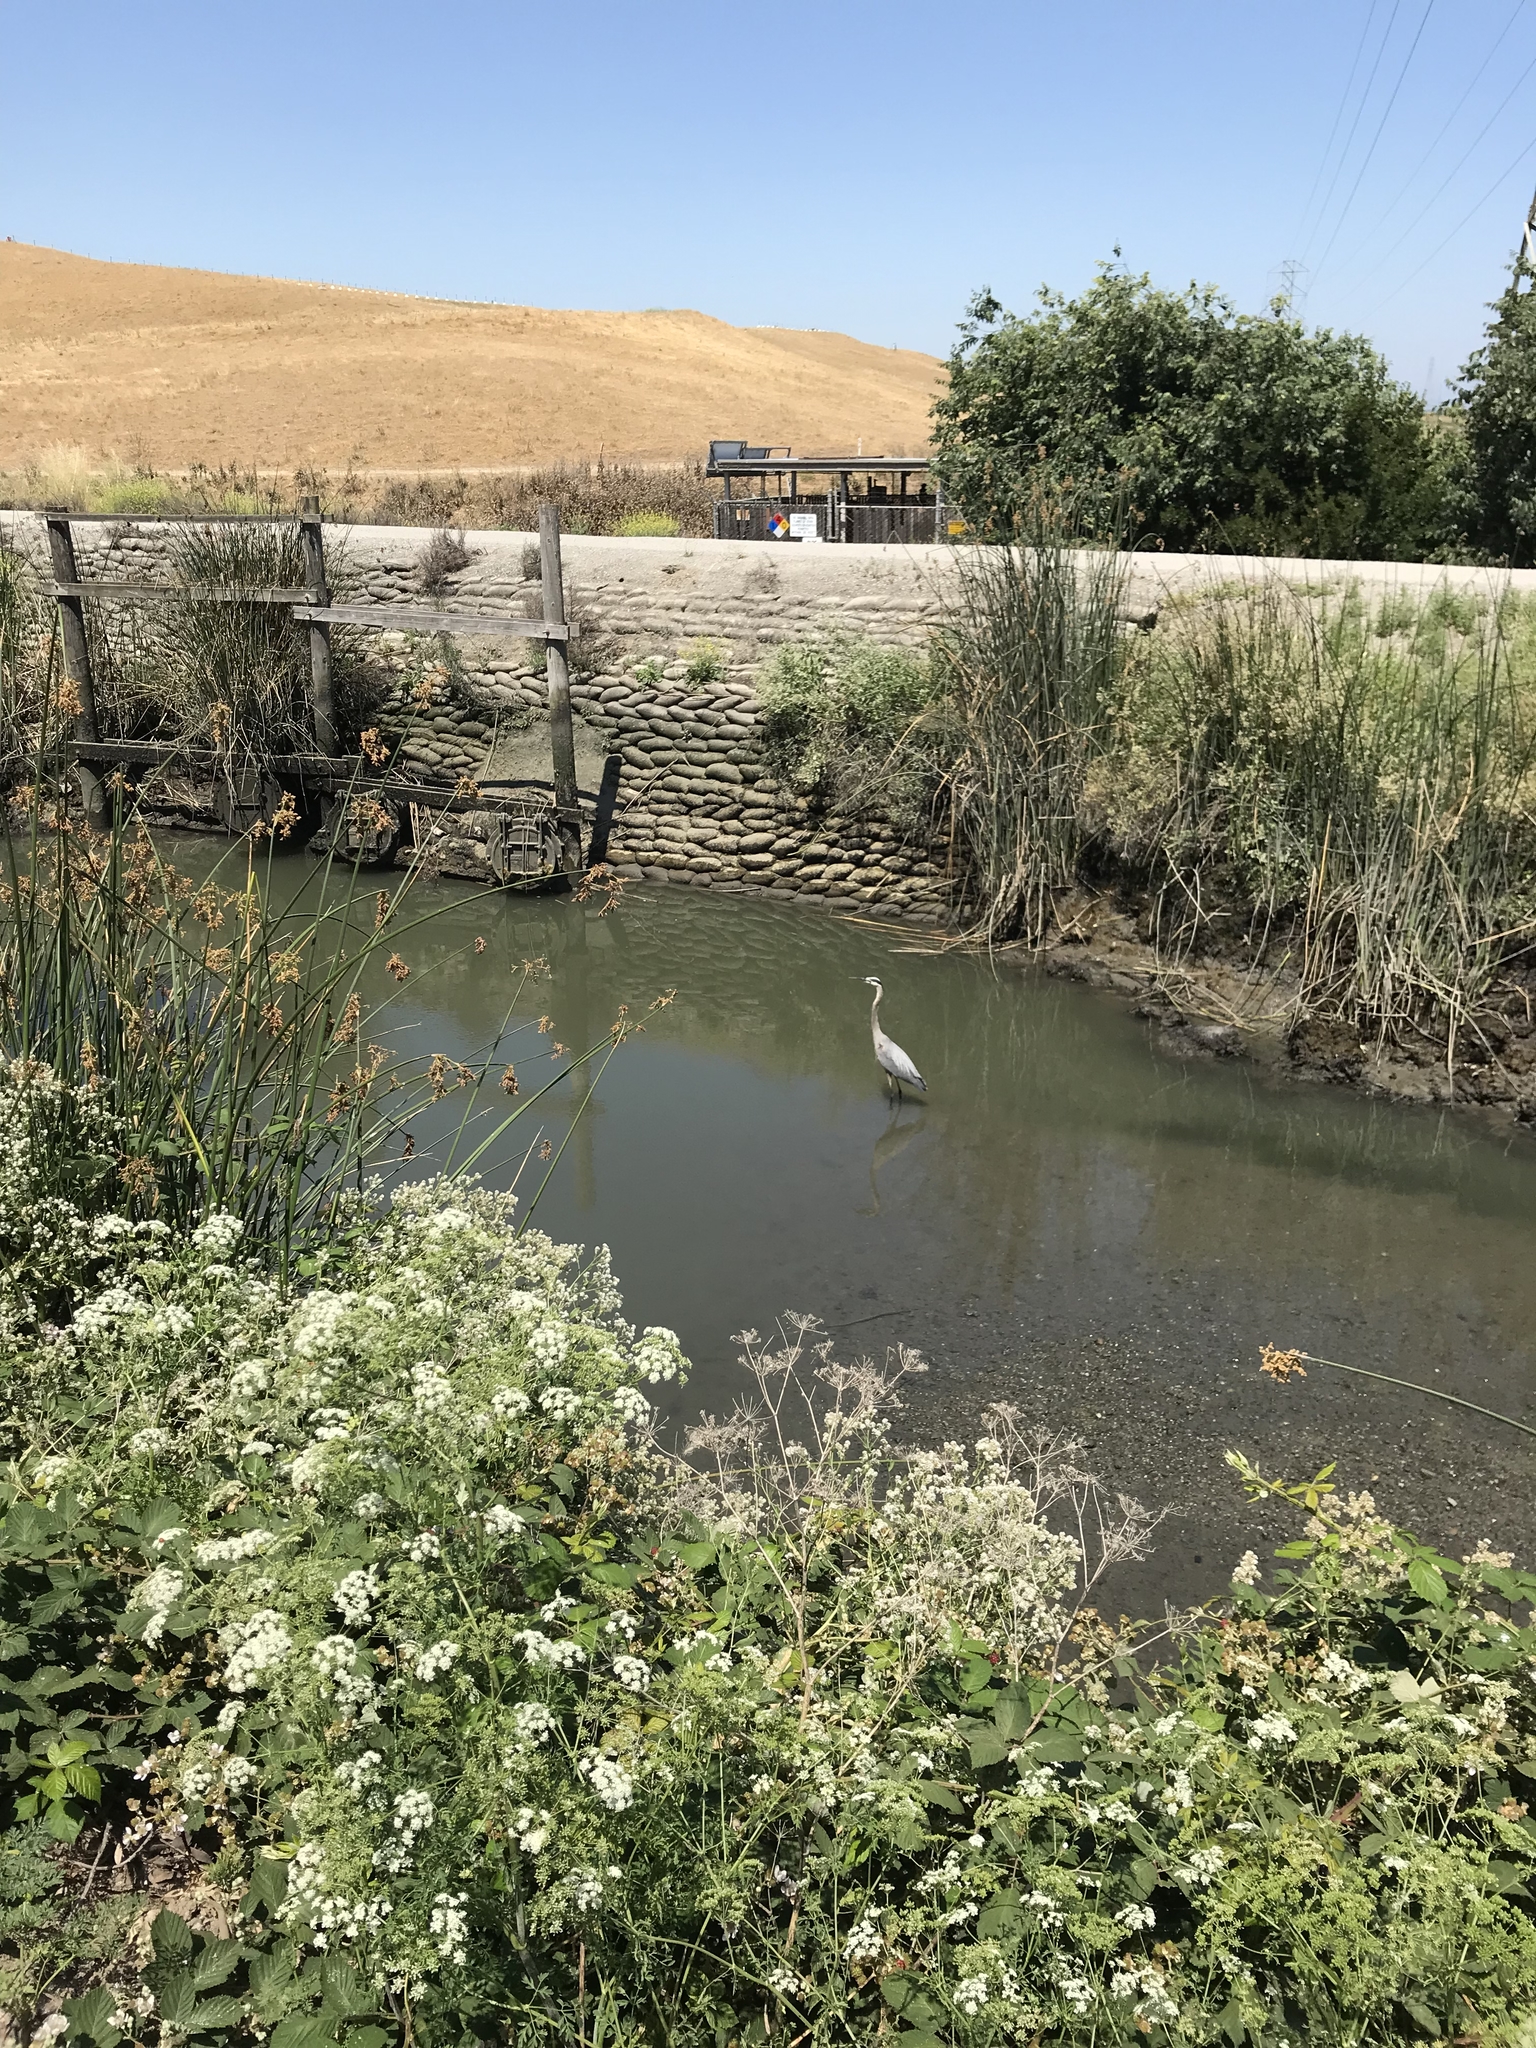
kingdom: Animalia
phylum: Chordata
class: Aves
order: Pelecaniformes
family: Ardeidae
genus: Ardea
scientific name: Ardea herodias
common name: Great blue heron
